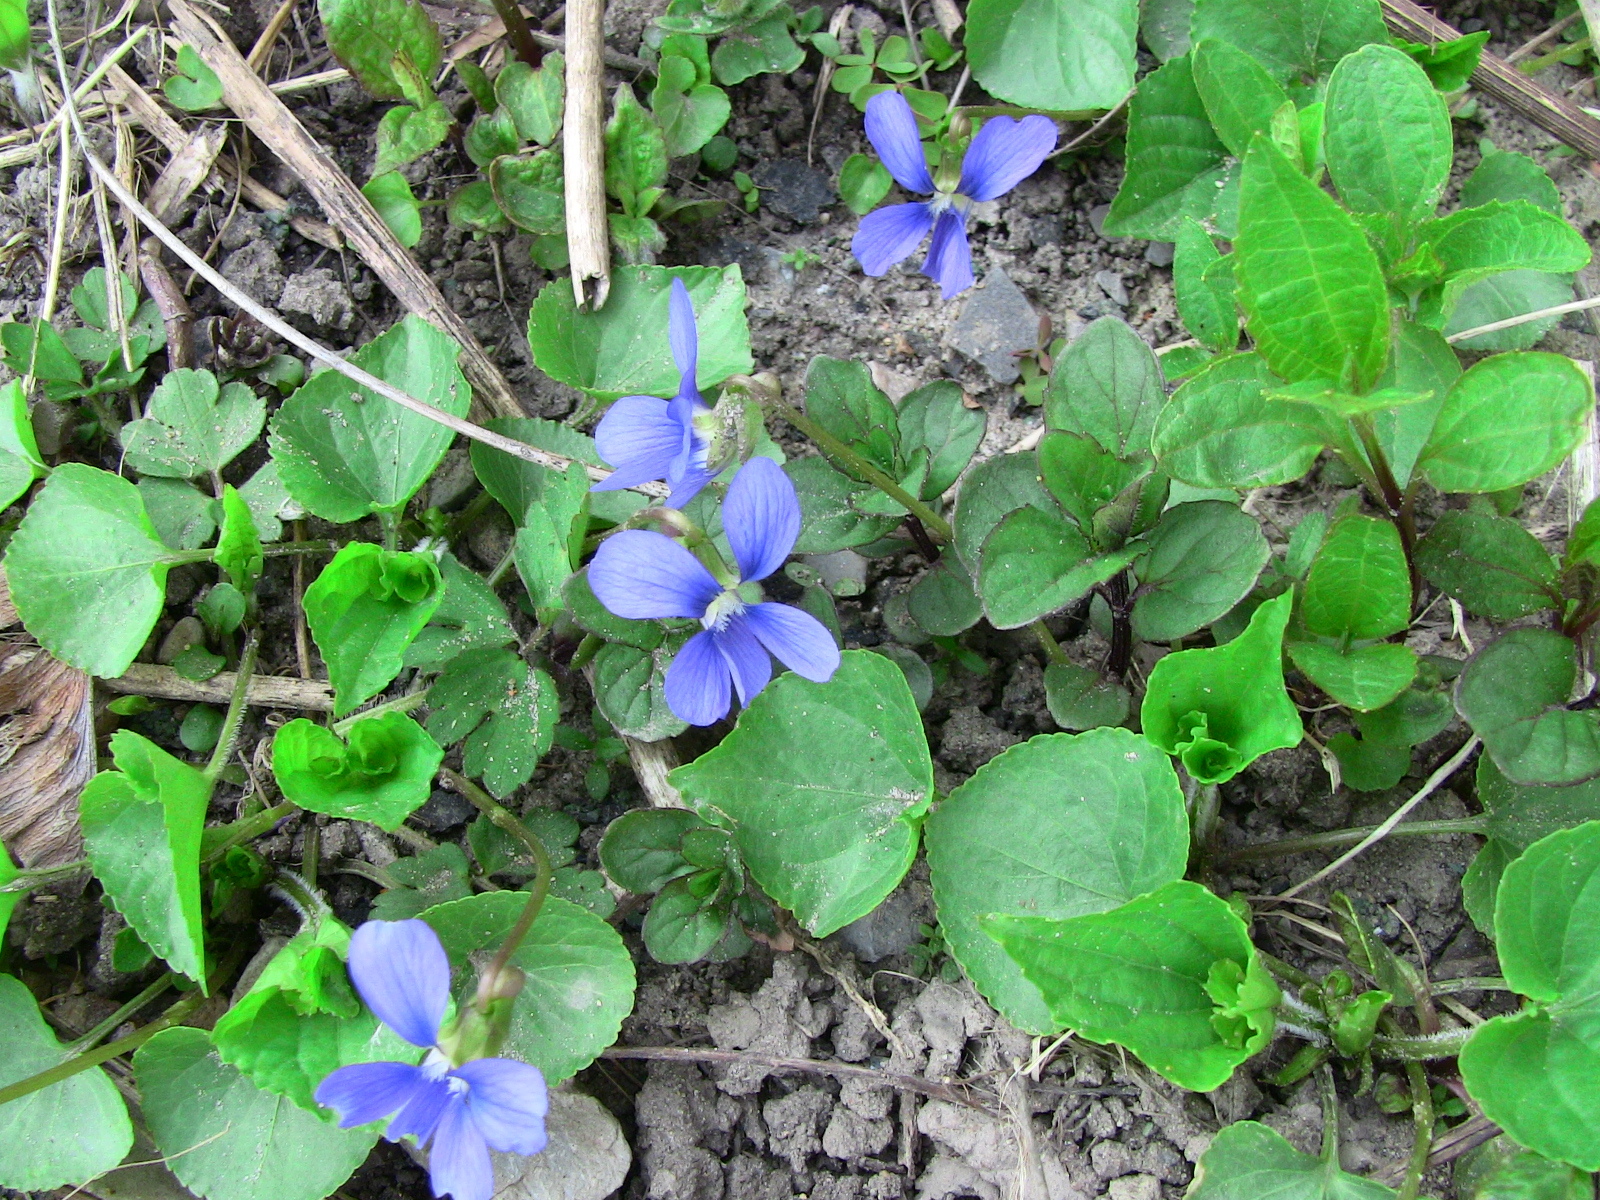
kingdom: Plantae
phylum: Tracheophyta
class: Magnoliopsida
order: Malpighiales
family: Violaceae
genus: Viola
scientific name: Viola communis
